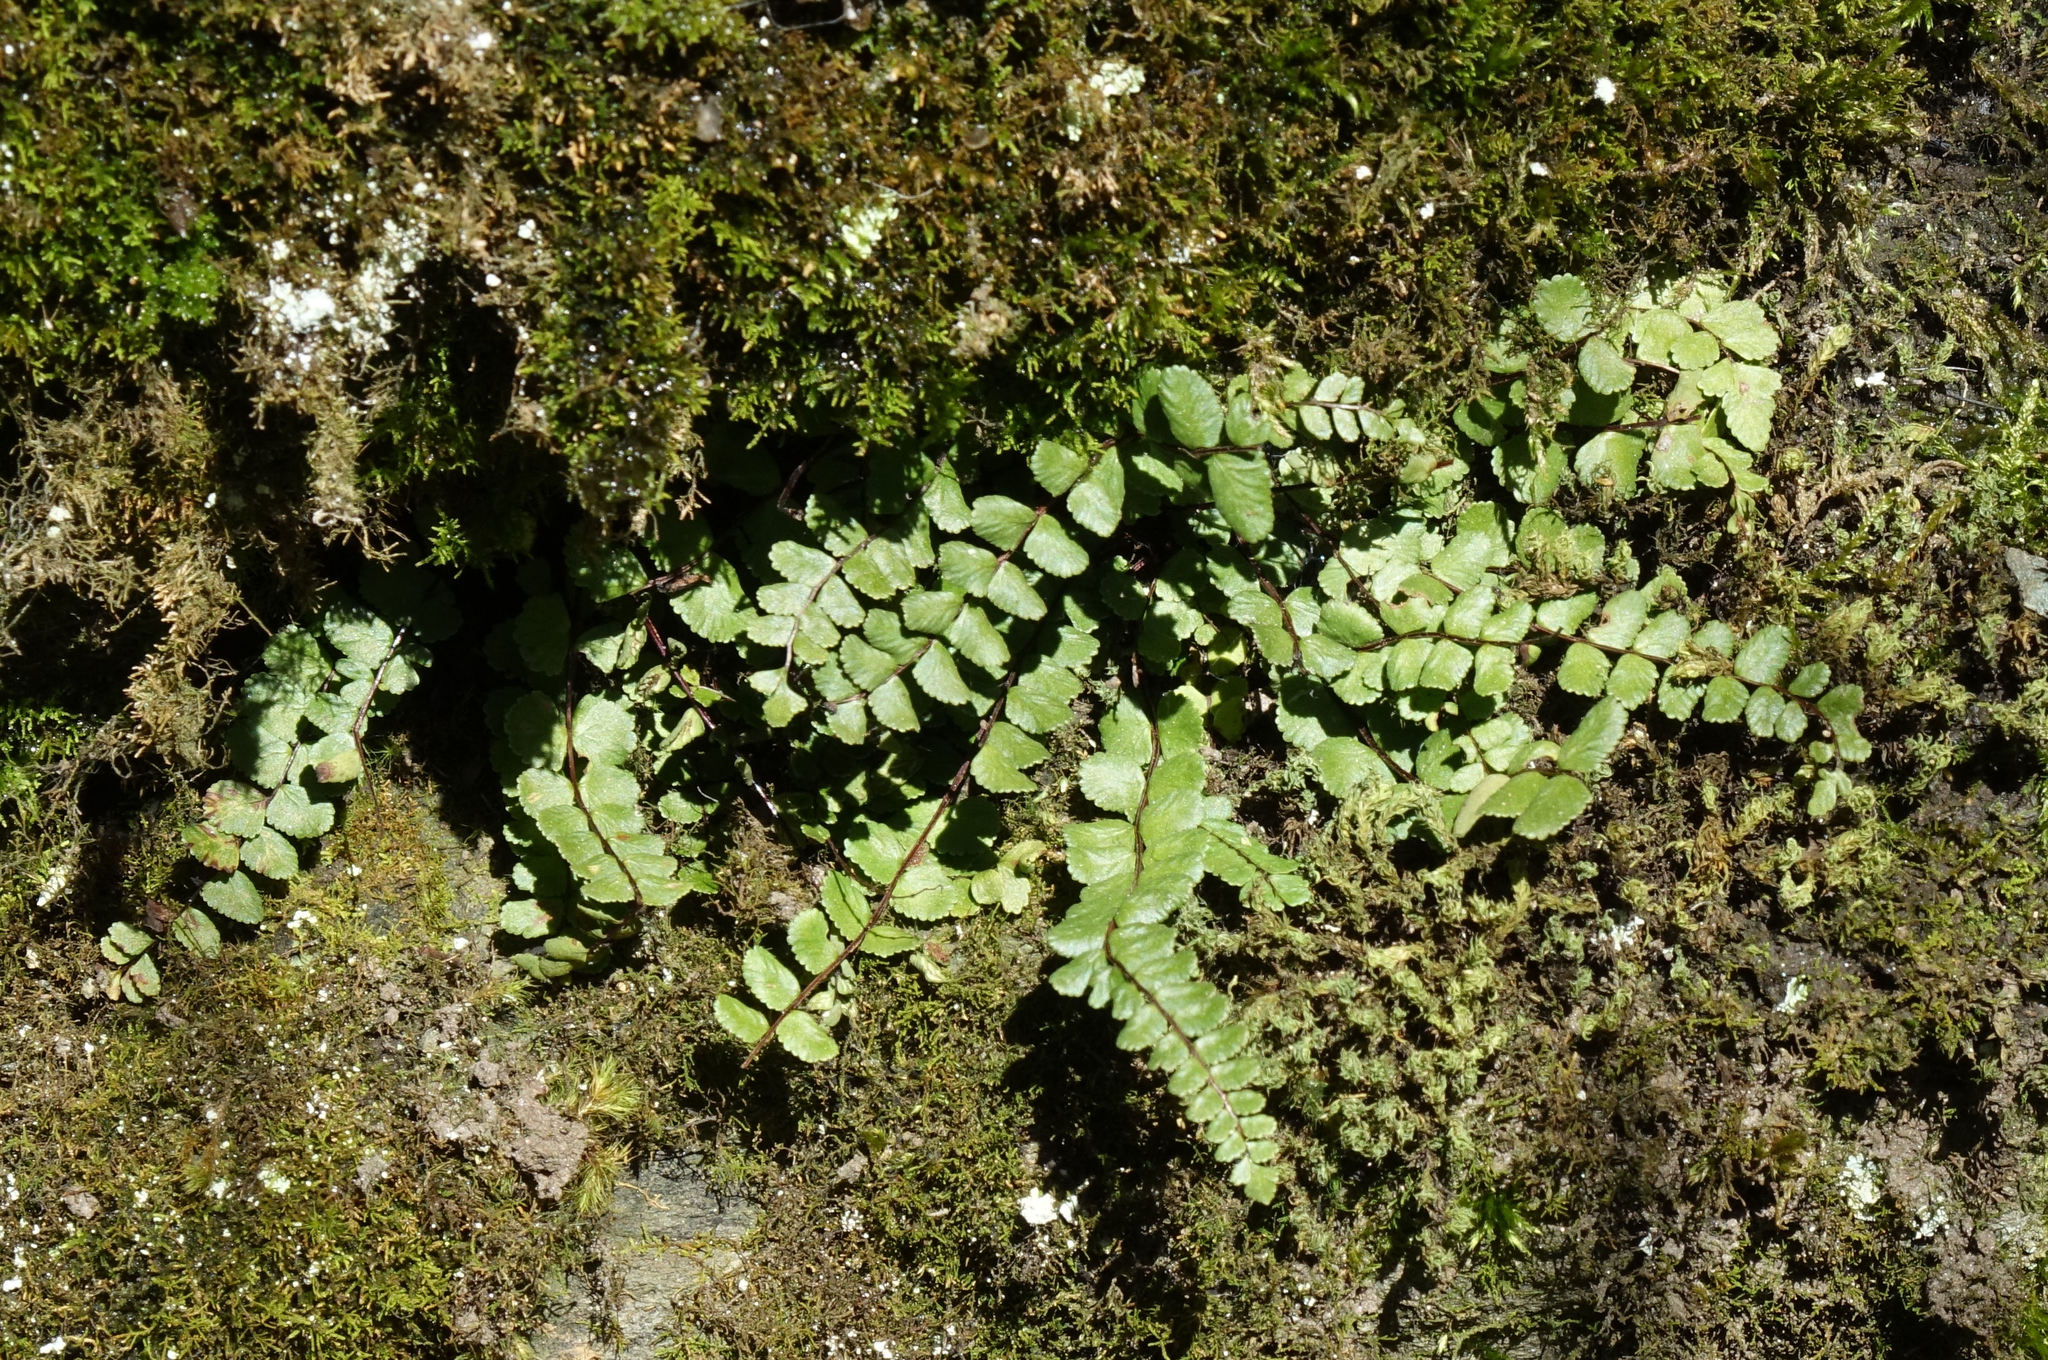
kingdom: Plantae
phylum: Tracheophyta
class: Polypodiopsida
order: Polypodiales
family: Aspleniaceae
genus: Asplenium
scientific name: Asplenium trichomanes
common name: Maidenhair spleenwort
